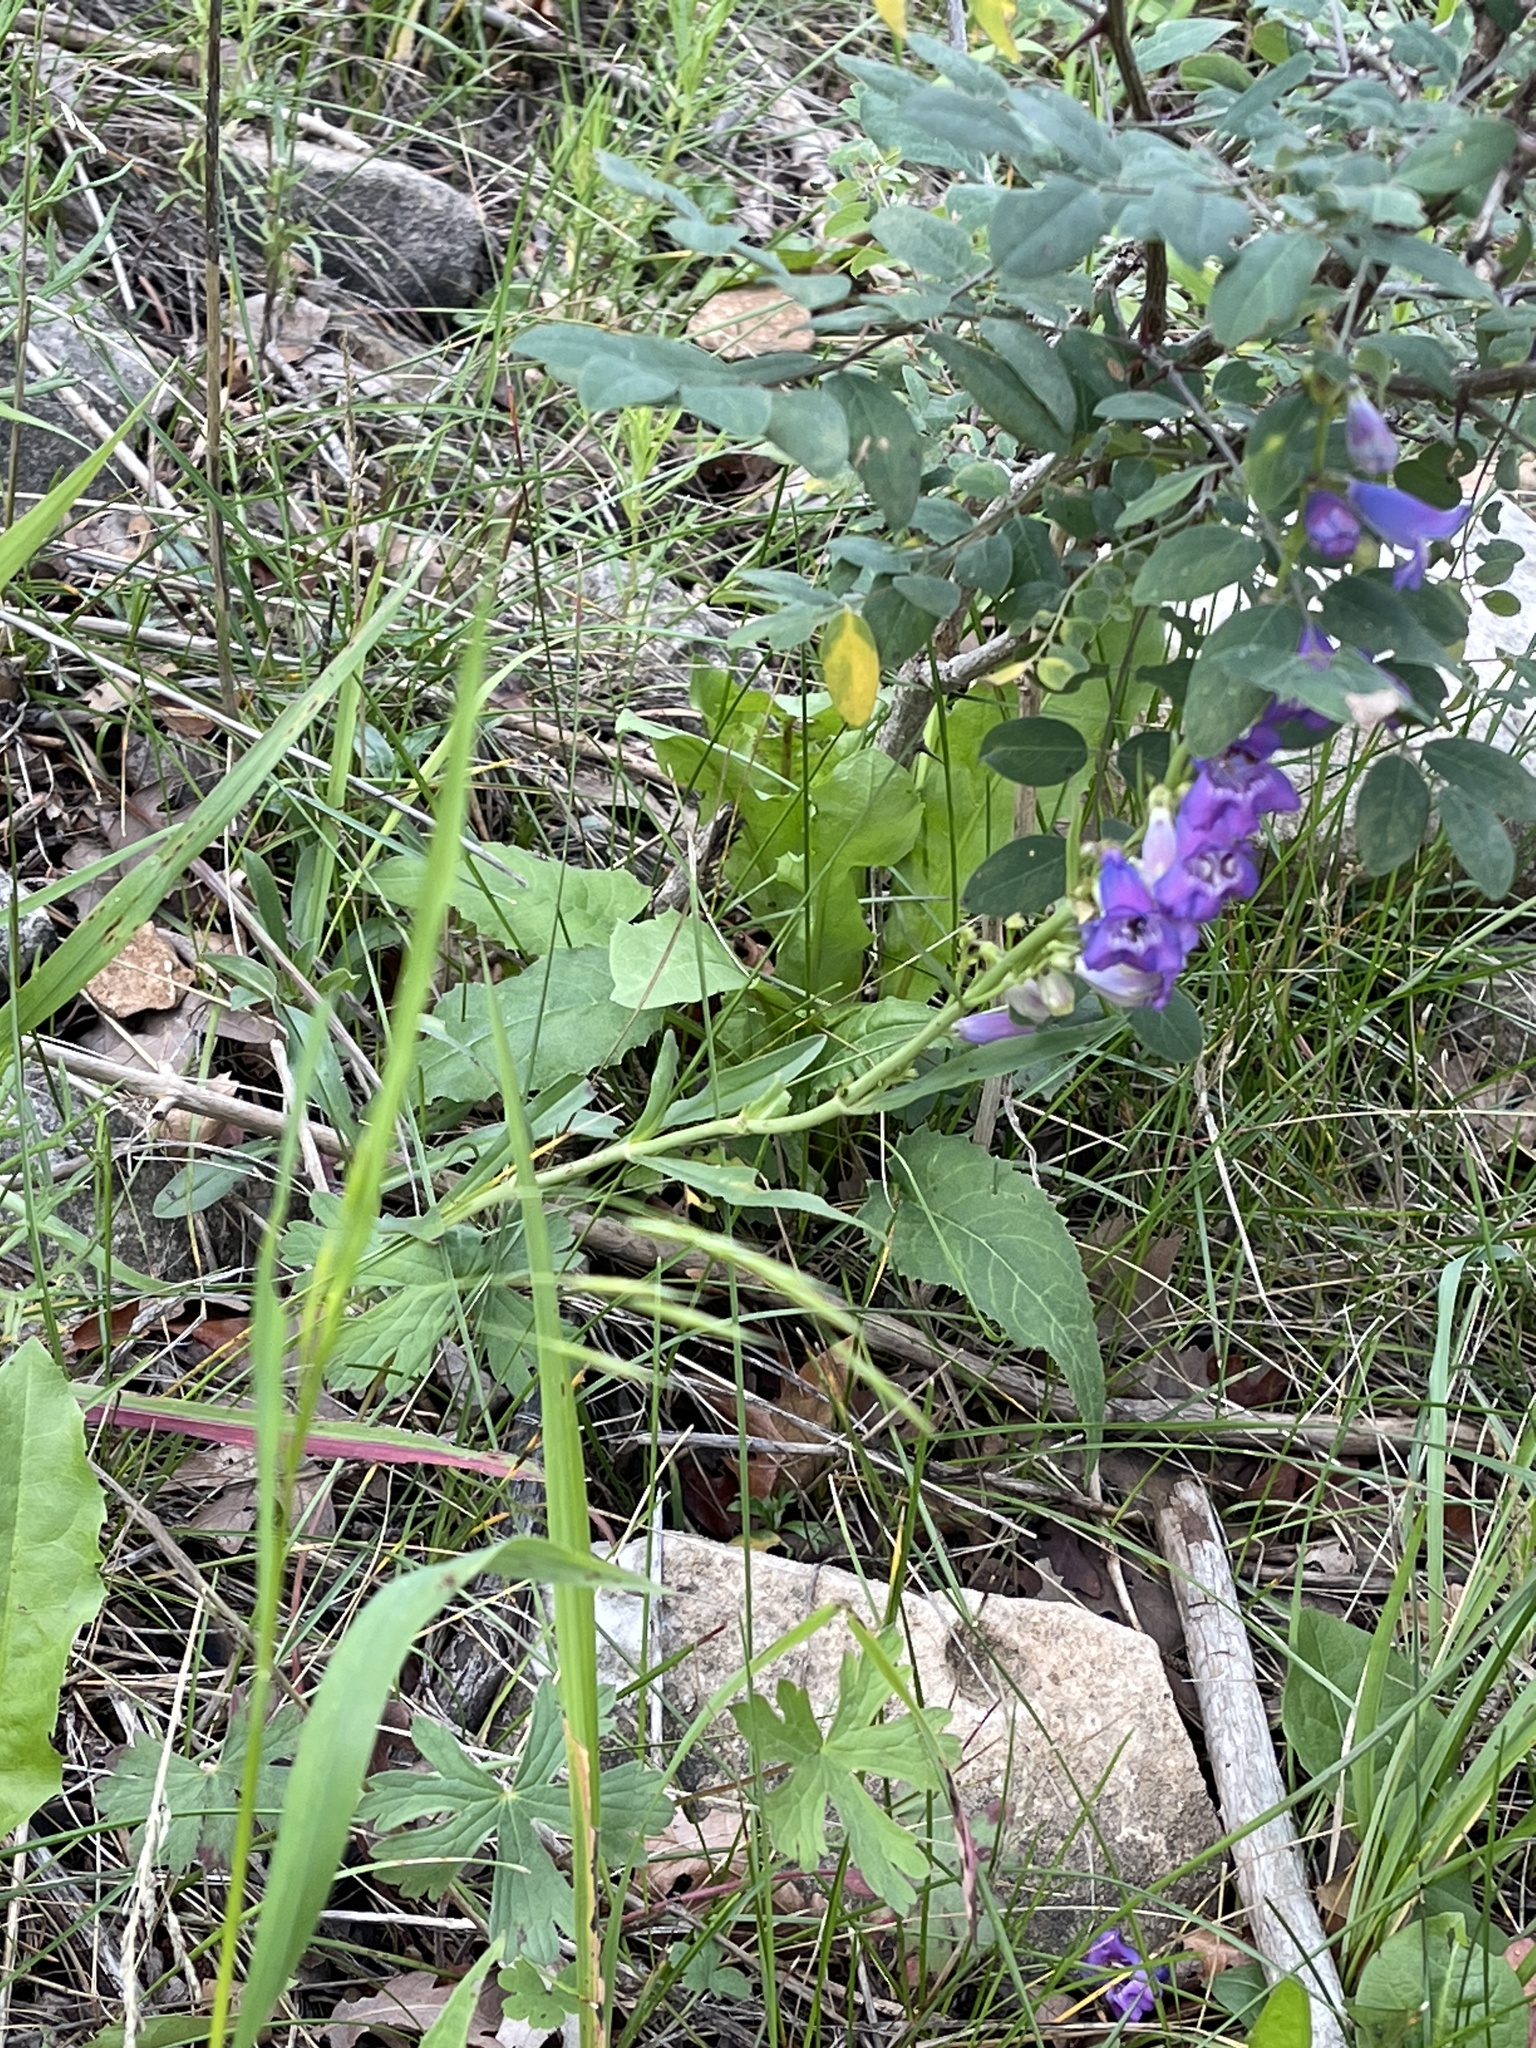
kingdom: Plantae
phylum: Tracheophyta
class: Magnoliopsida
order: Lamiales
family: Plantaginaceae
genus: Penstemon
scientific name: Penstemon neomexicanus
